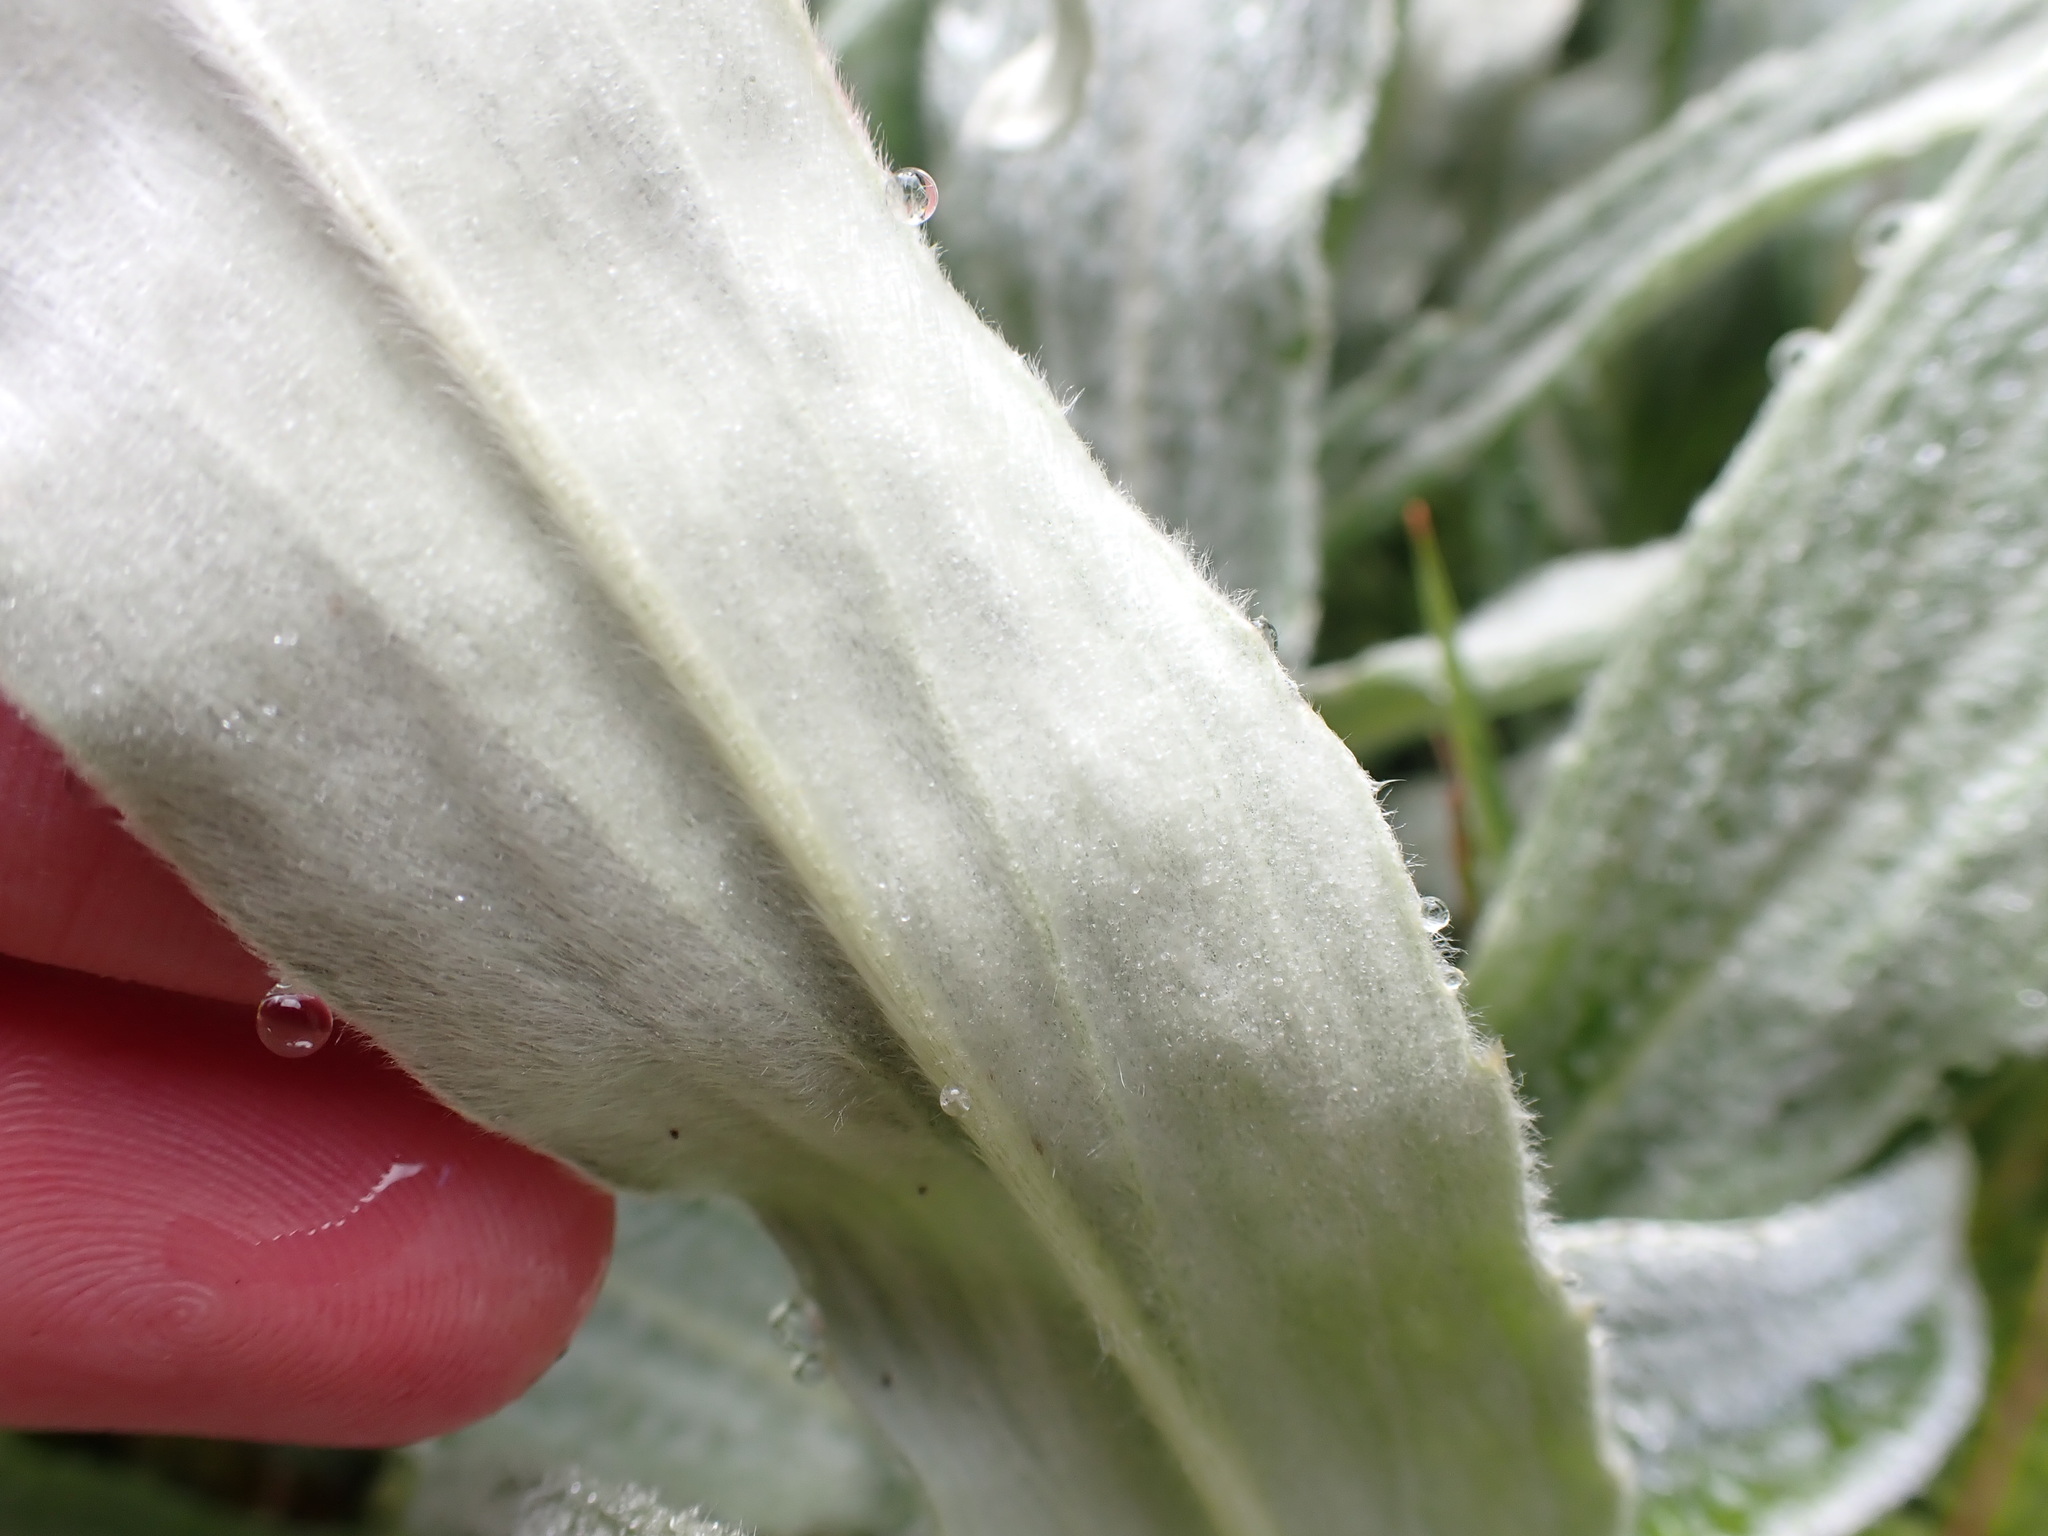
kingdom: Plantae
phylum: Tracheophyta
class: Magnoliopsida
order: Asterales
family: Asteraceae
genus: Celmisia
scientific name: Celmisia sericophylla
